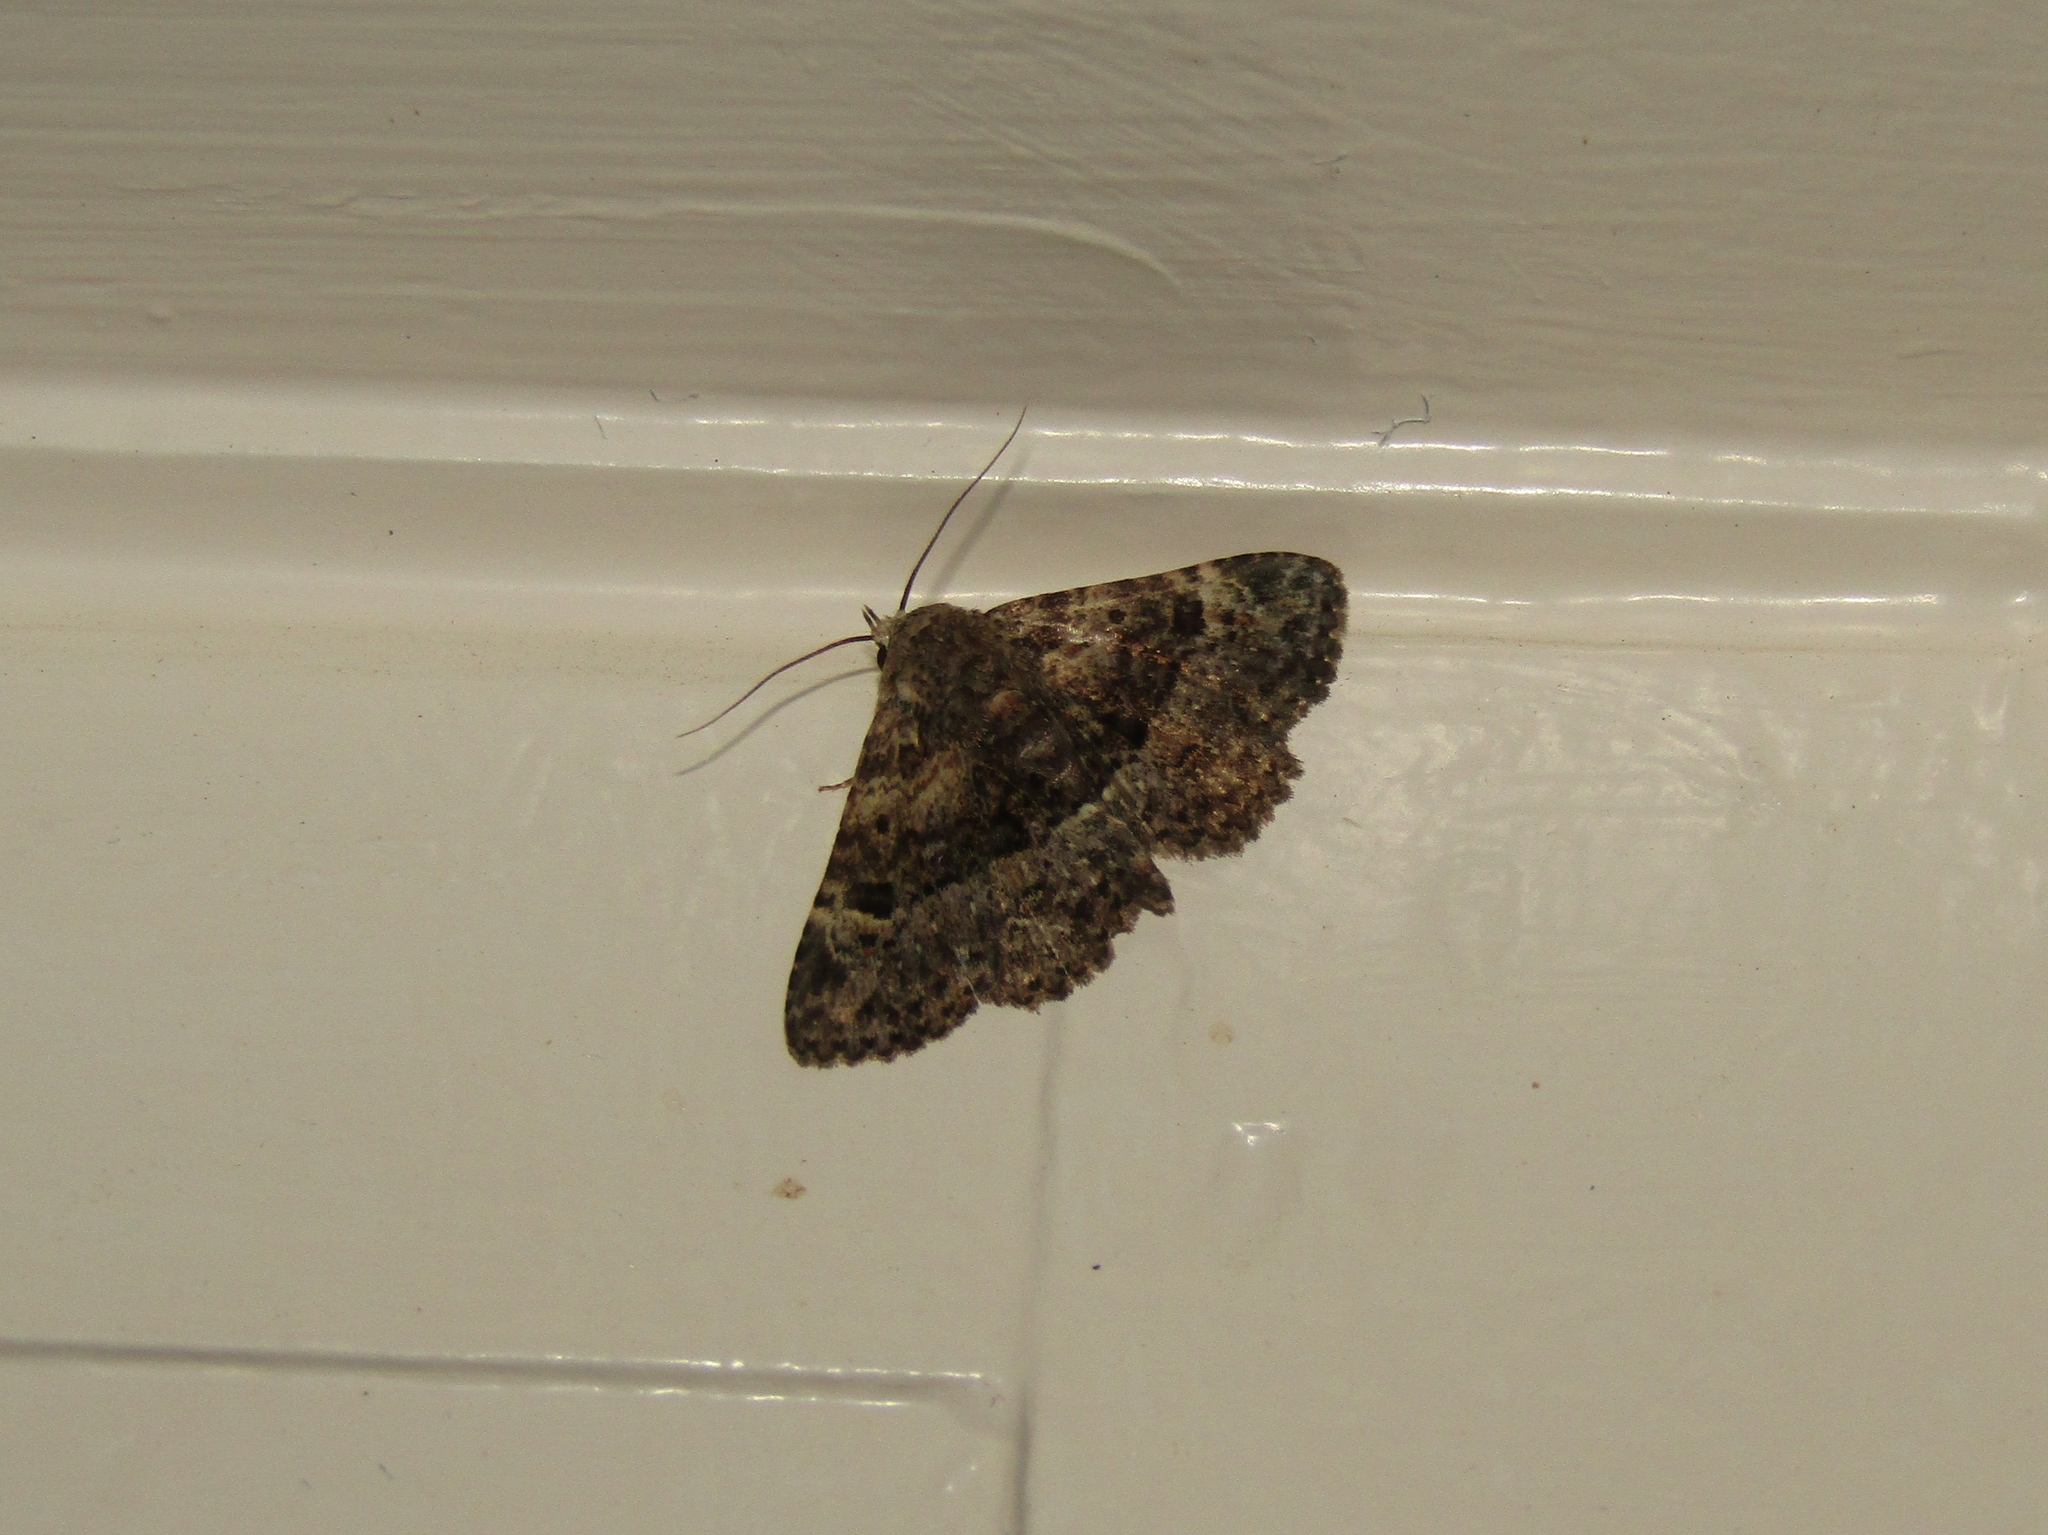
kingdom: Animalia
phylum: Arthropoda
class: Insecta
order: Lepidoptera
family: Erebidae
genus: Metalectra
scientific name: Metalectra discalis
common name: Common fungus moth
